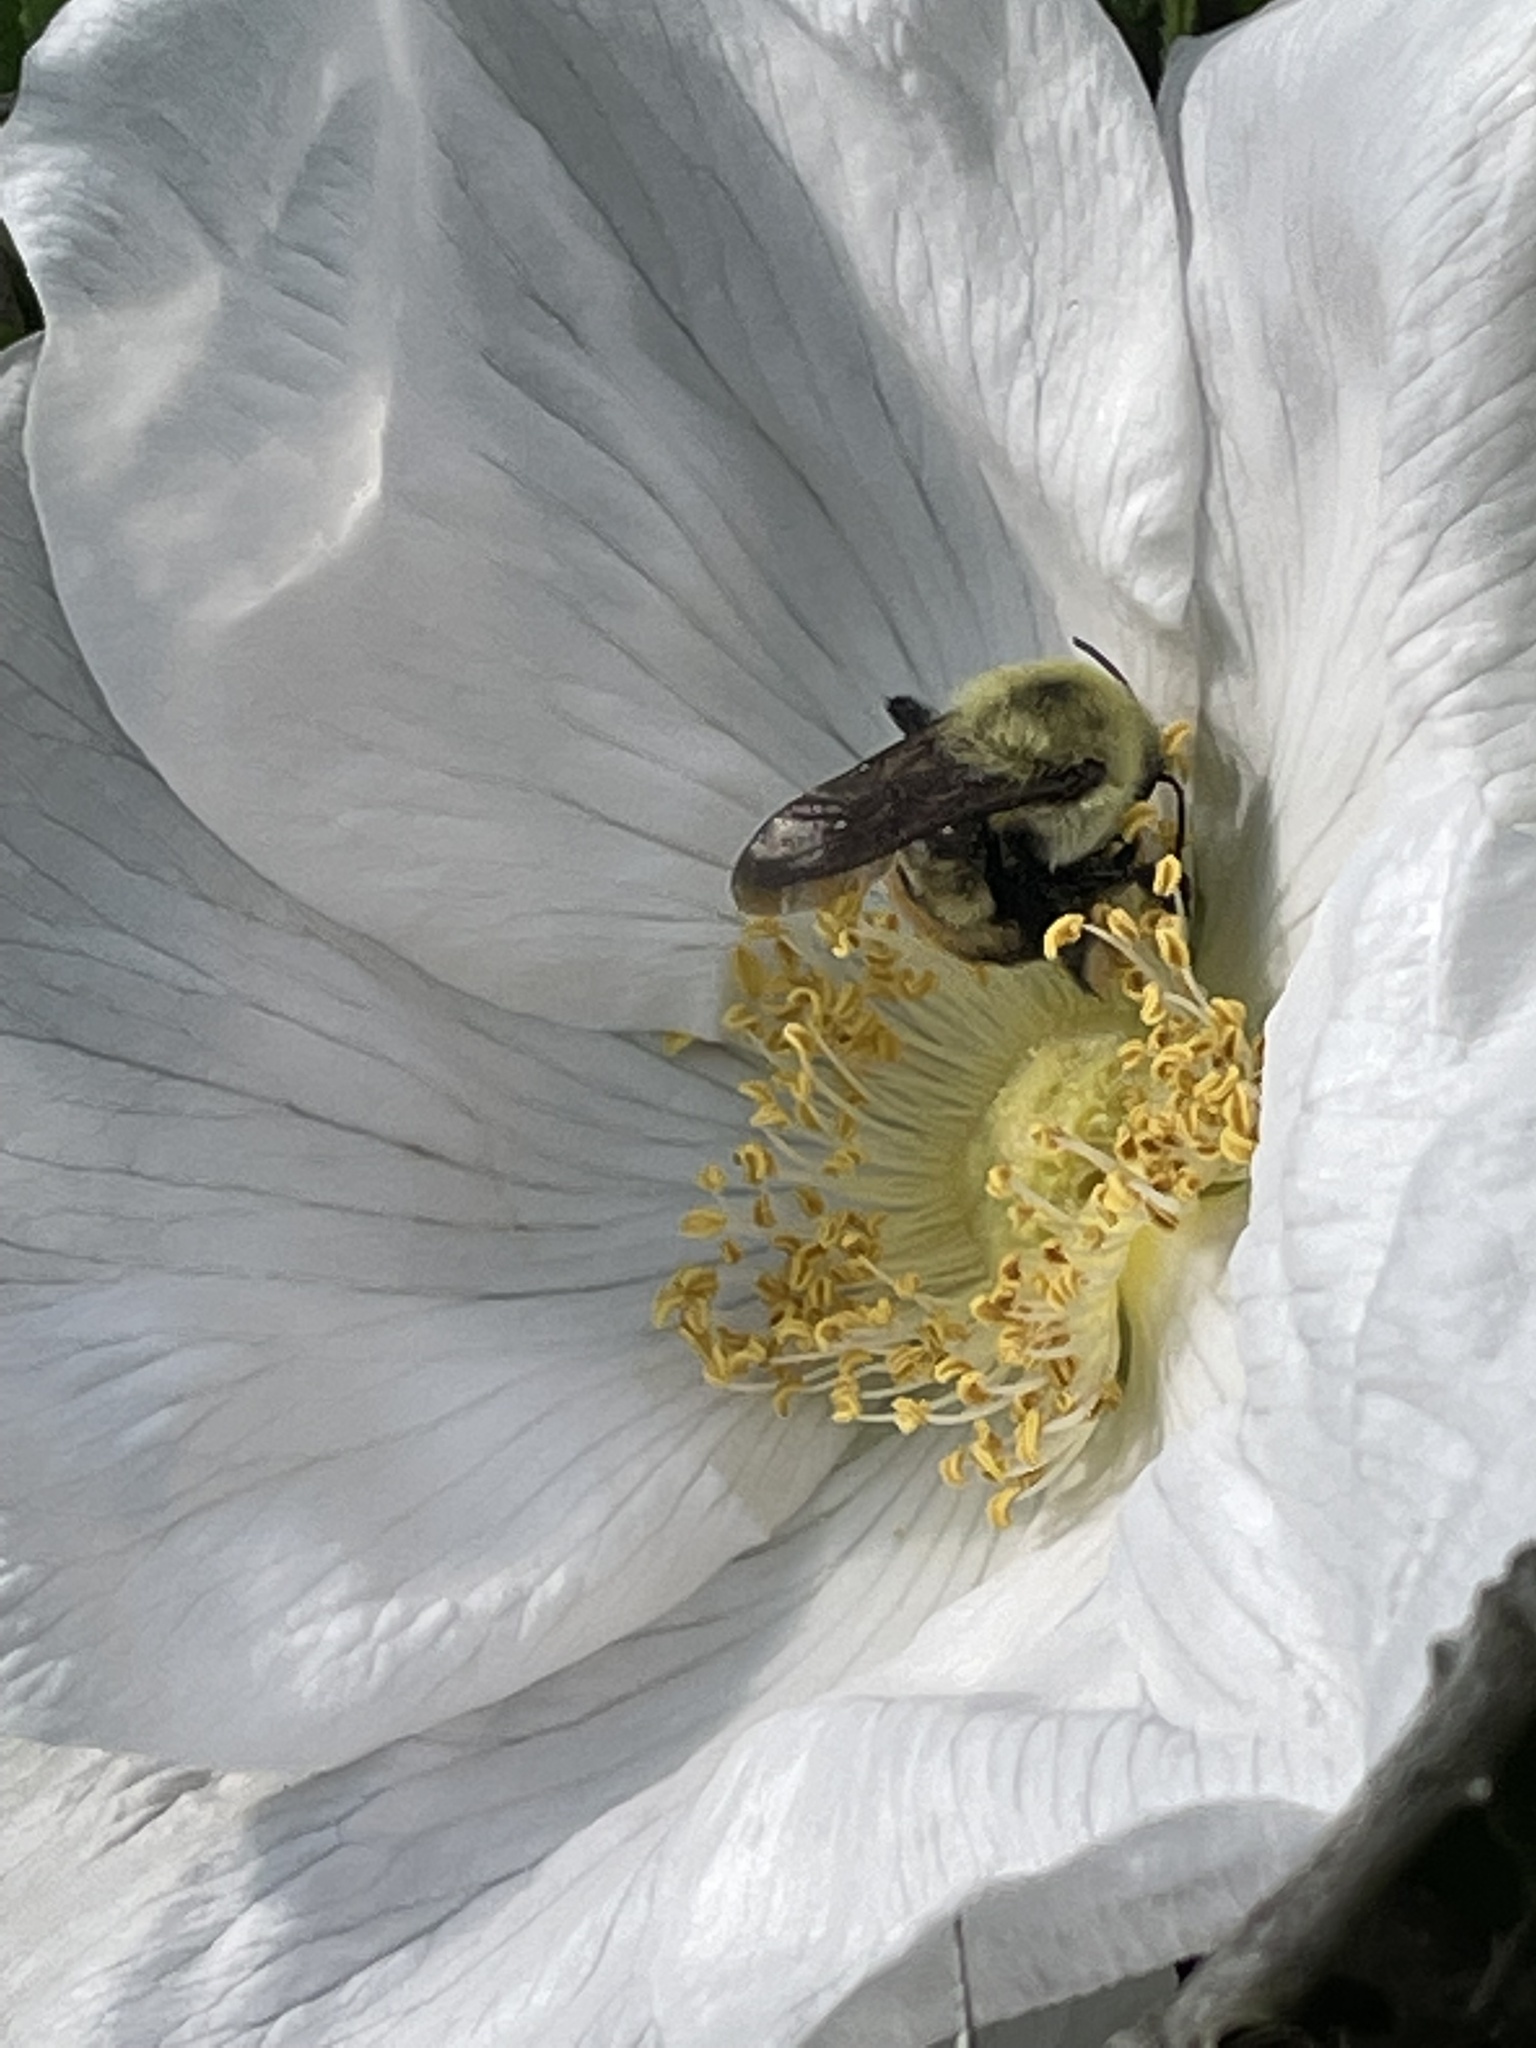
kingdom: Animalia
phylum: Arthropoda
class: Insecta
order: Hymenoptera
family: Apidae
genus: Bombus
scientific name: Bombus griseocollis
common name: Brown-belted bumble bee
